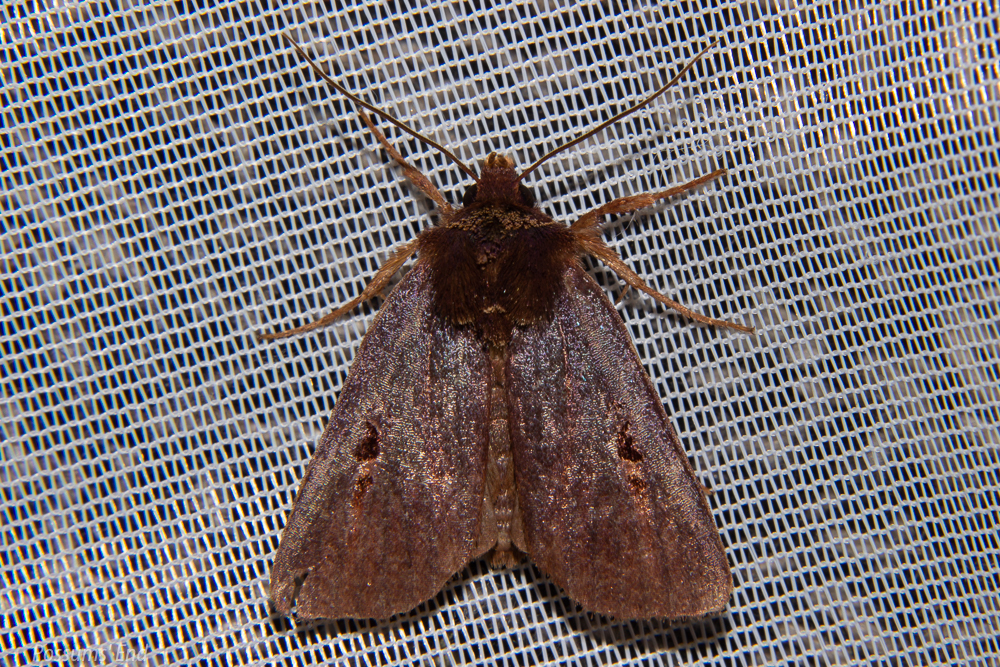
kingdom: Animalia
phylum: Arthropoda
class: Insecta
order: Lepidoptera
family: Noctuidae
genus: Austramathes
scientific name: Austramathes purpurea
